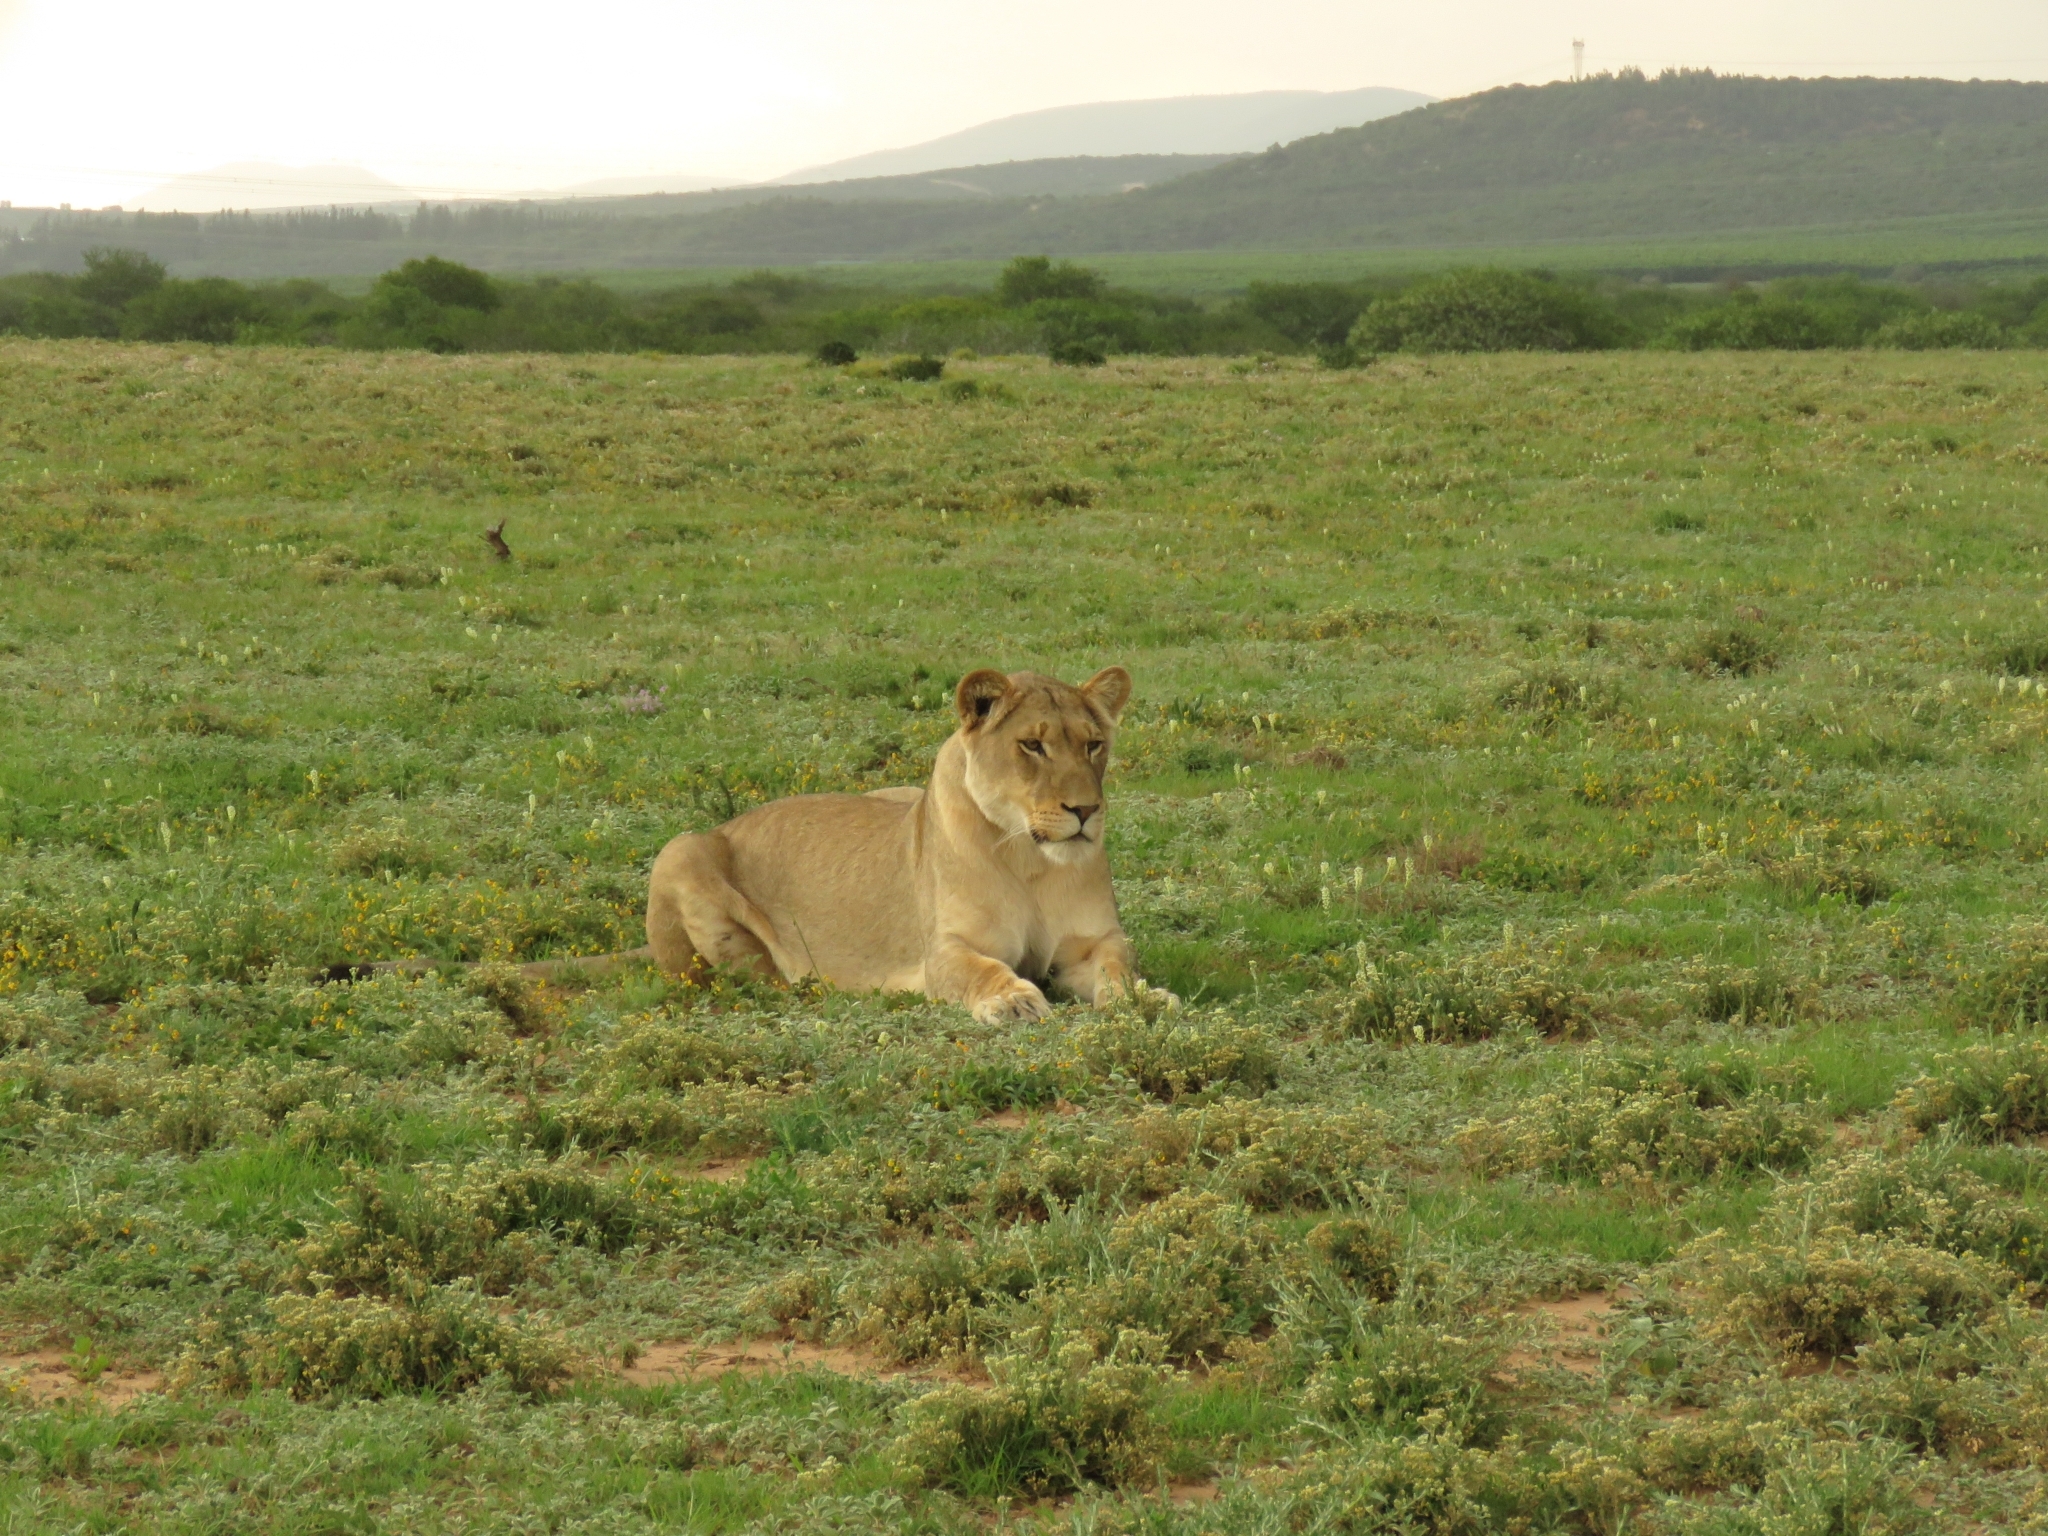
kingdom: Animalia
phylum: Chordata
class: Mammalia
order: Carnivora
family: Felidae
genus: Panthera
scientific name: Panthera leo
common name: Lion
